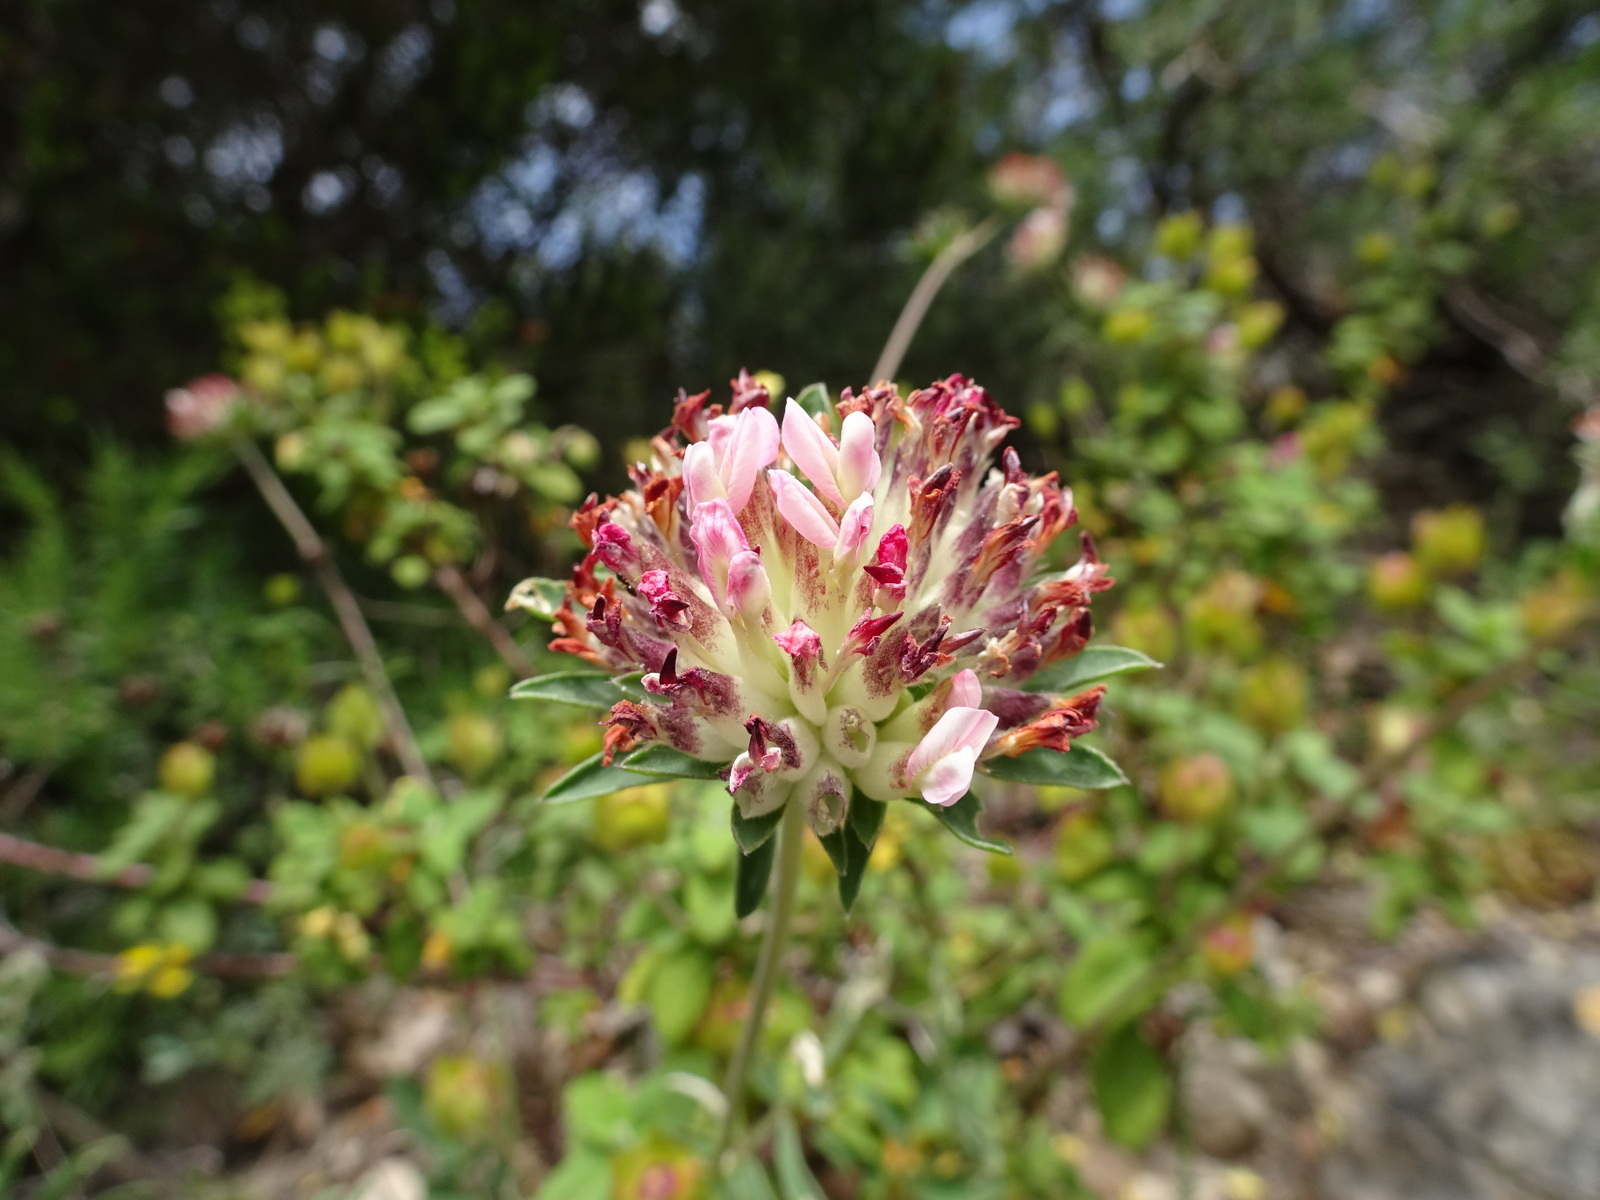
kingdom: Plantae
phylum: Tracheophyta
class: Magnoliopsida
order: Fabales
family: Fabaceae
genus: Anthyllis
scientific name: Anthyllis vulneraria
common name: Kidney vetch
